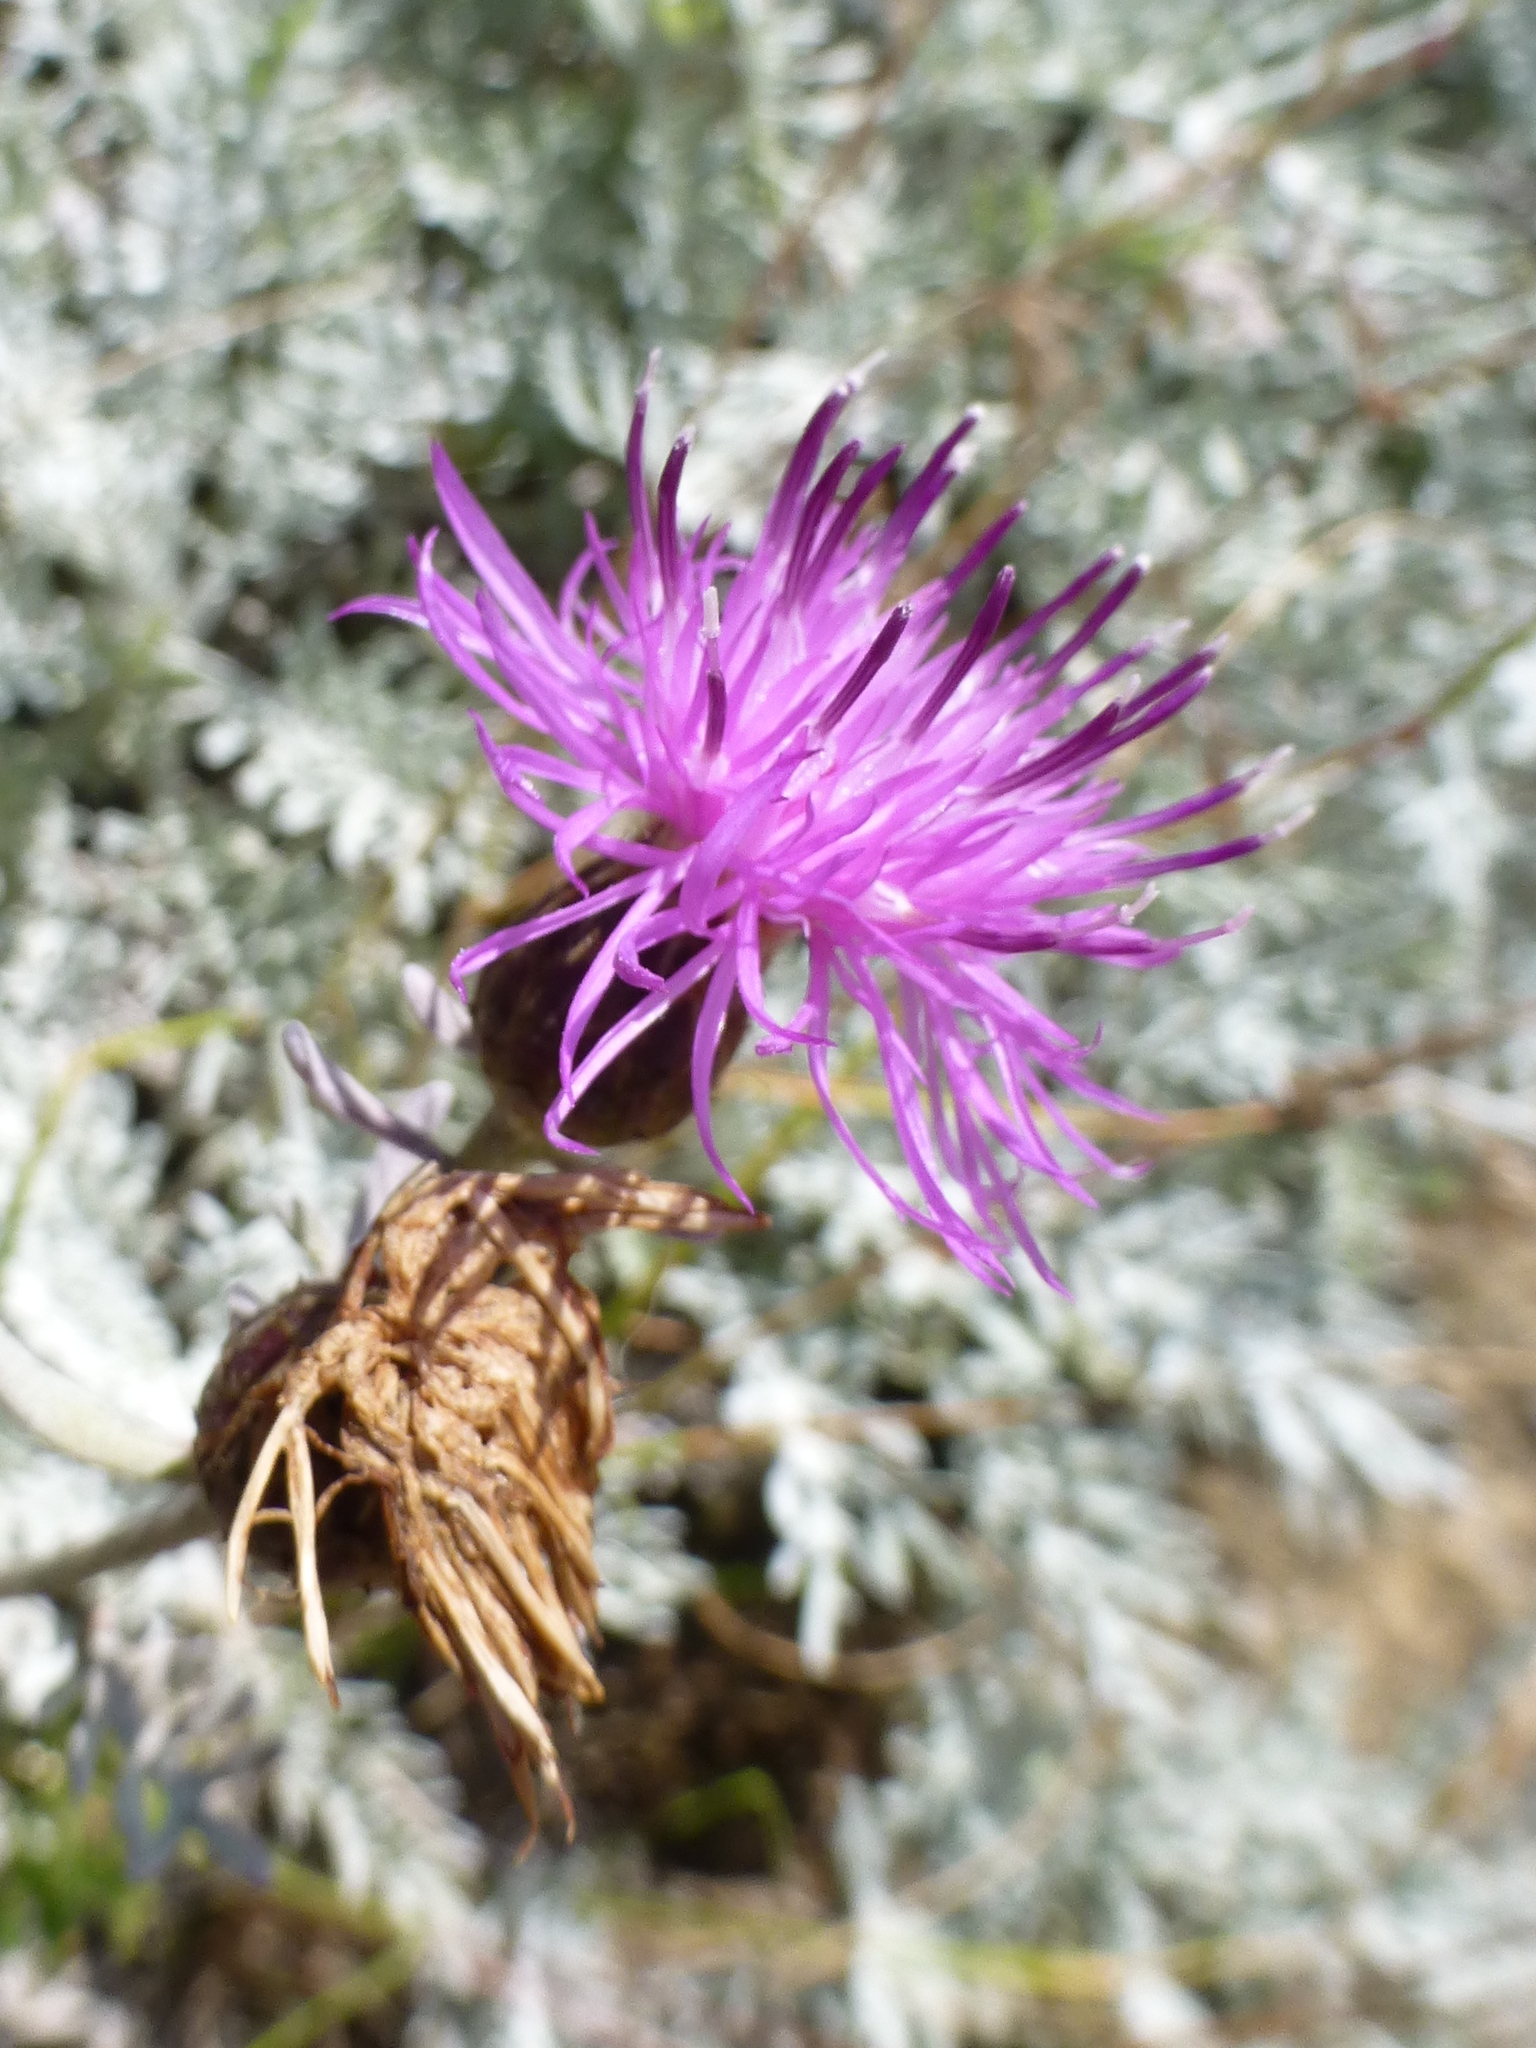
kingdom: Plantae
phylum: Tracheophyta
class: Magnoliopsida
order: Asterales
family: Asteraceae
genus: Centaurea
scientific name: Centaurea cineraria
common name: Dusty miller
